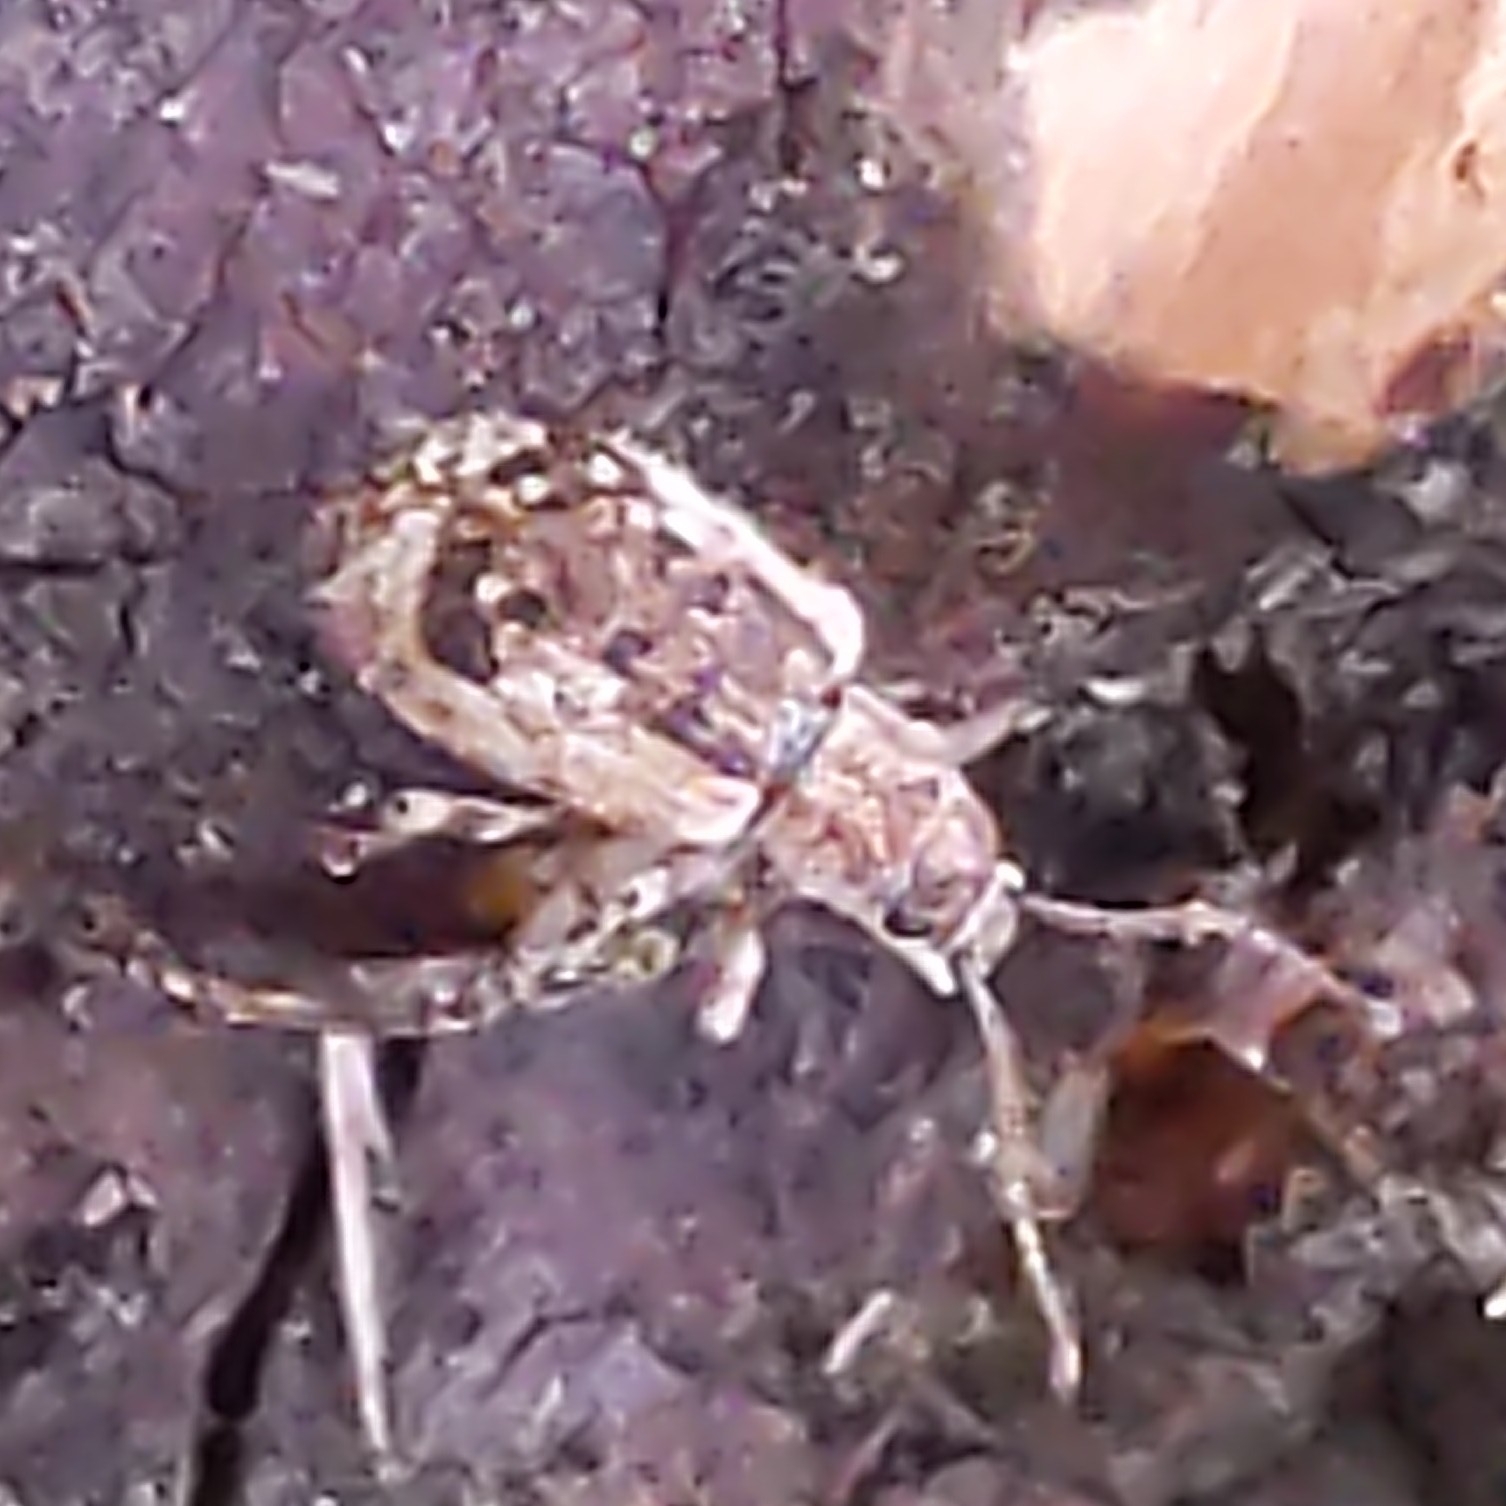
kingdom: Animalia
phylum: Arthropoda
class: Insecta
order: Coleoptera
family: Curculionidae
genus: Pseudoedophrys
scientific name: Pseudoedophrys hilleri
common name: Weevil
